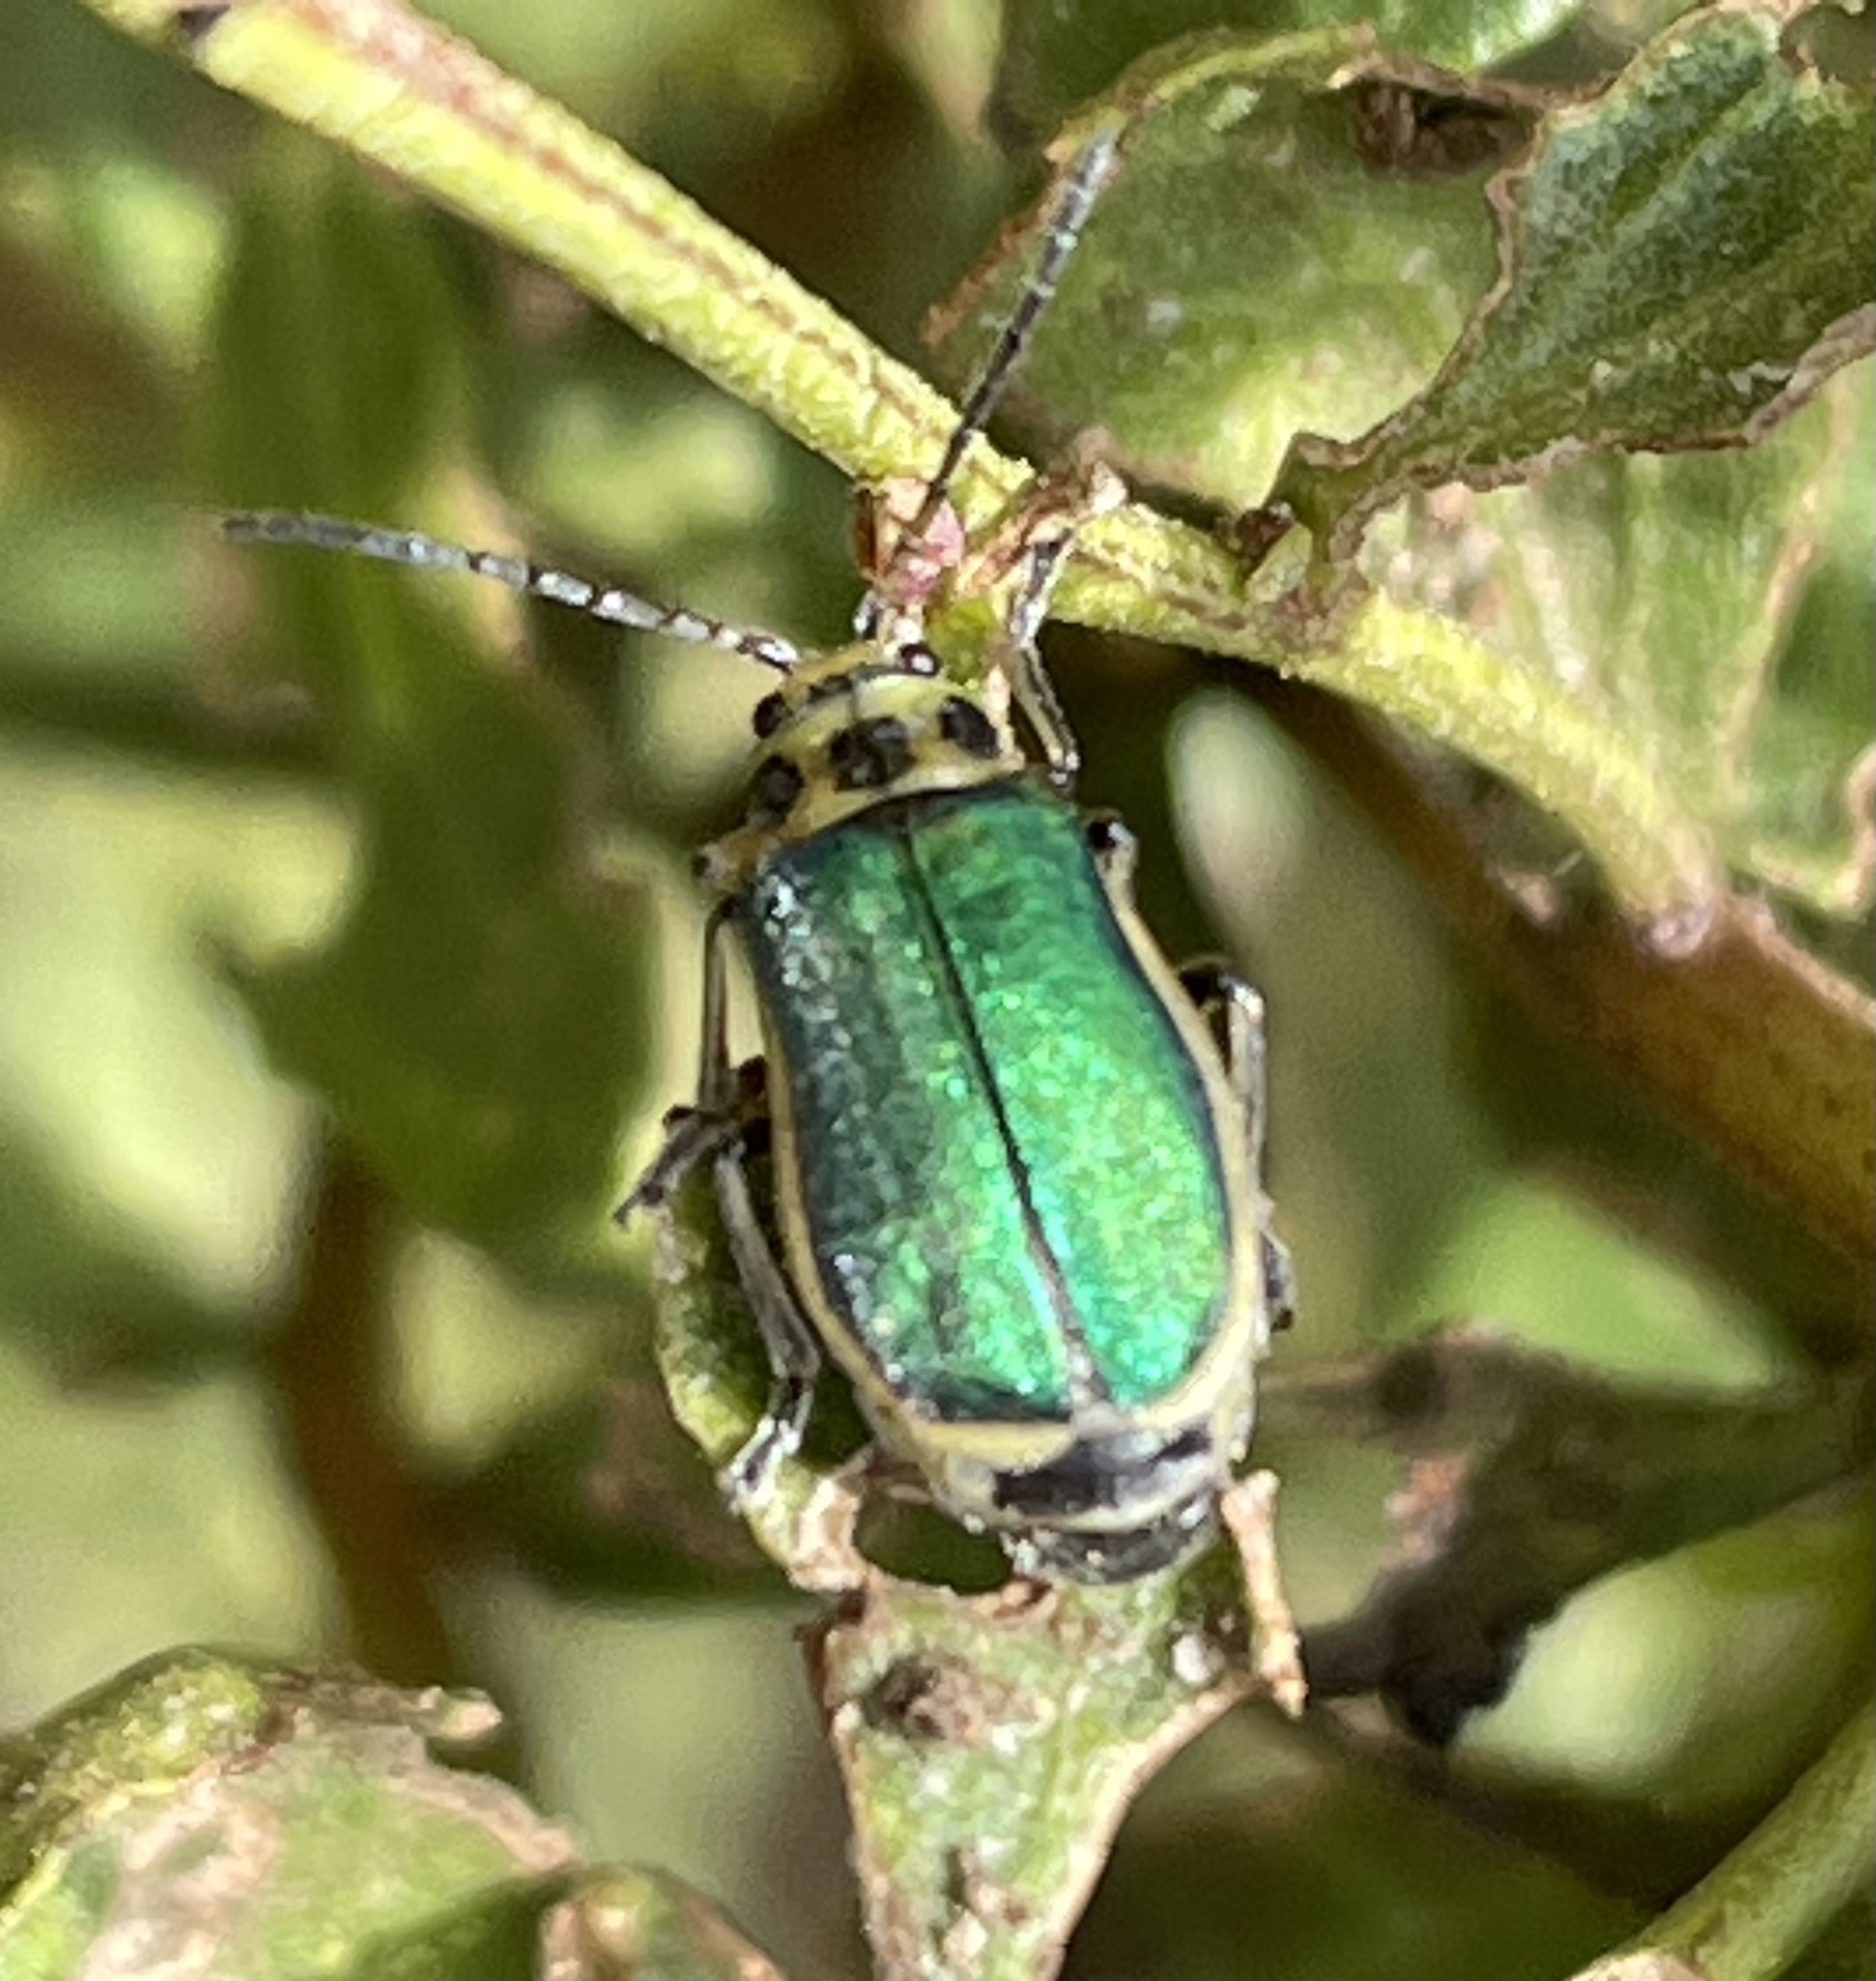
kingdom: Animalia
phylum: Arthropoda
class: Insecta
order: Coleoptera
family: Chrysomelidae
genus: Trirhabda
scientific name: Trirhabda flavolimbata
